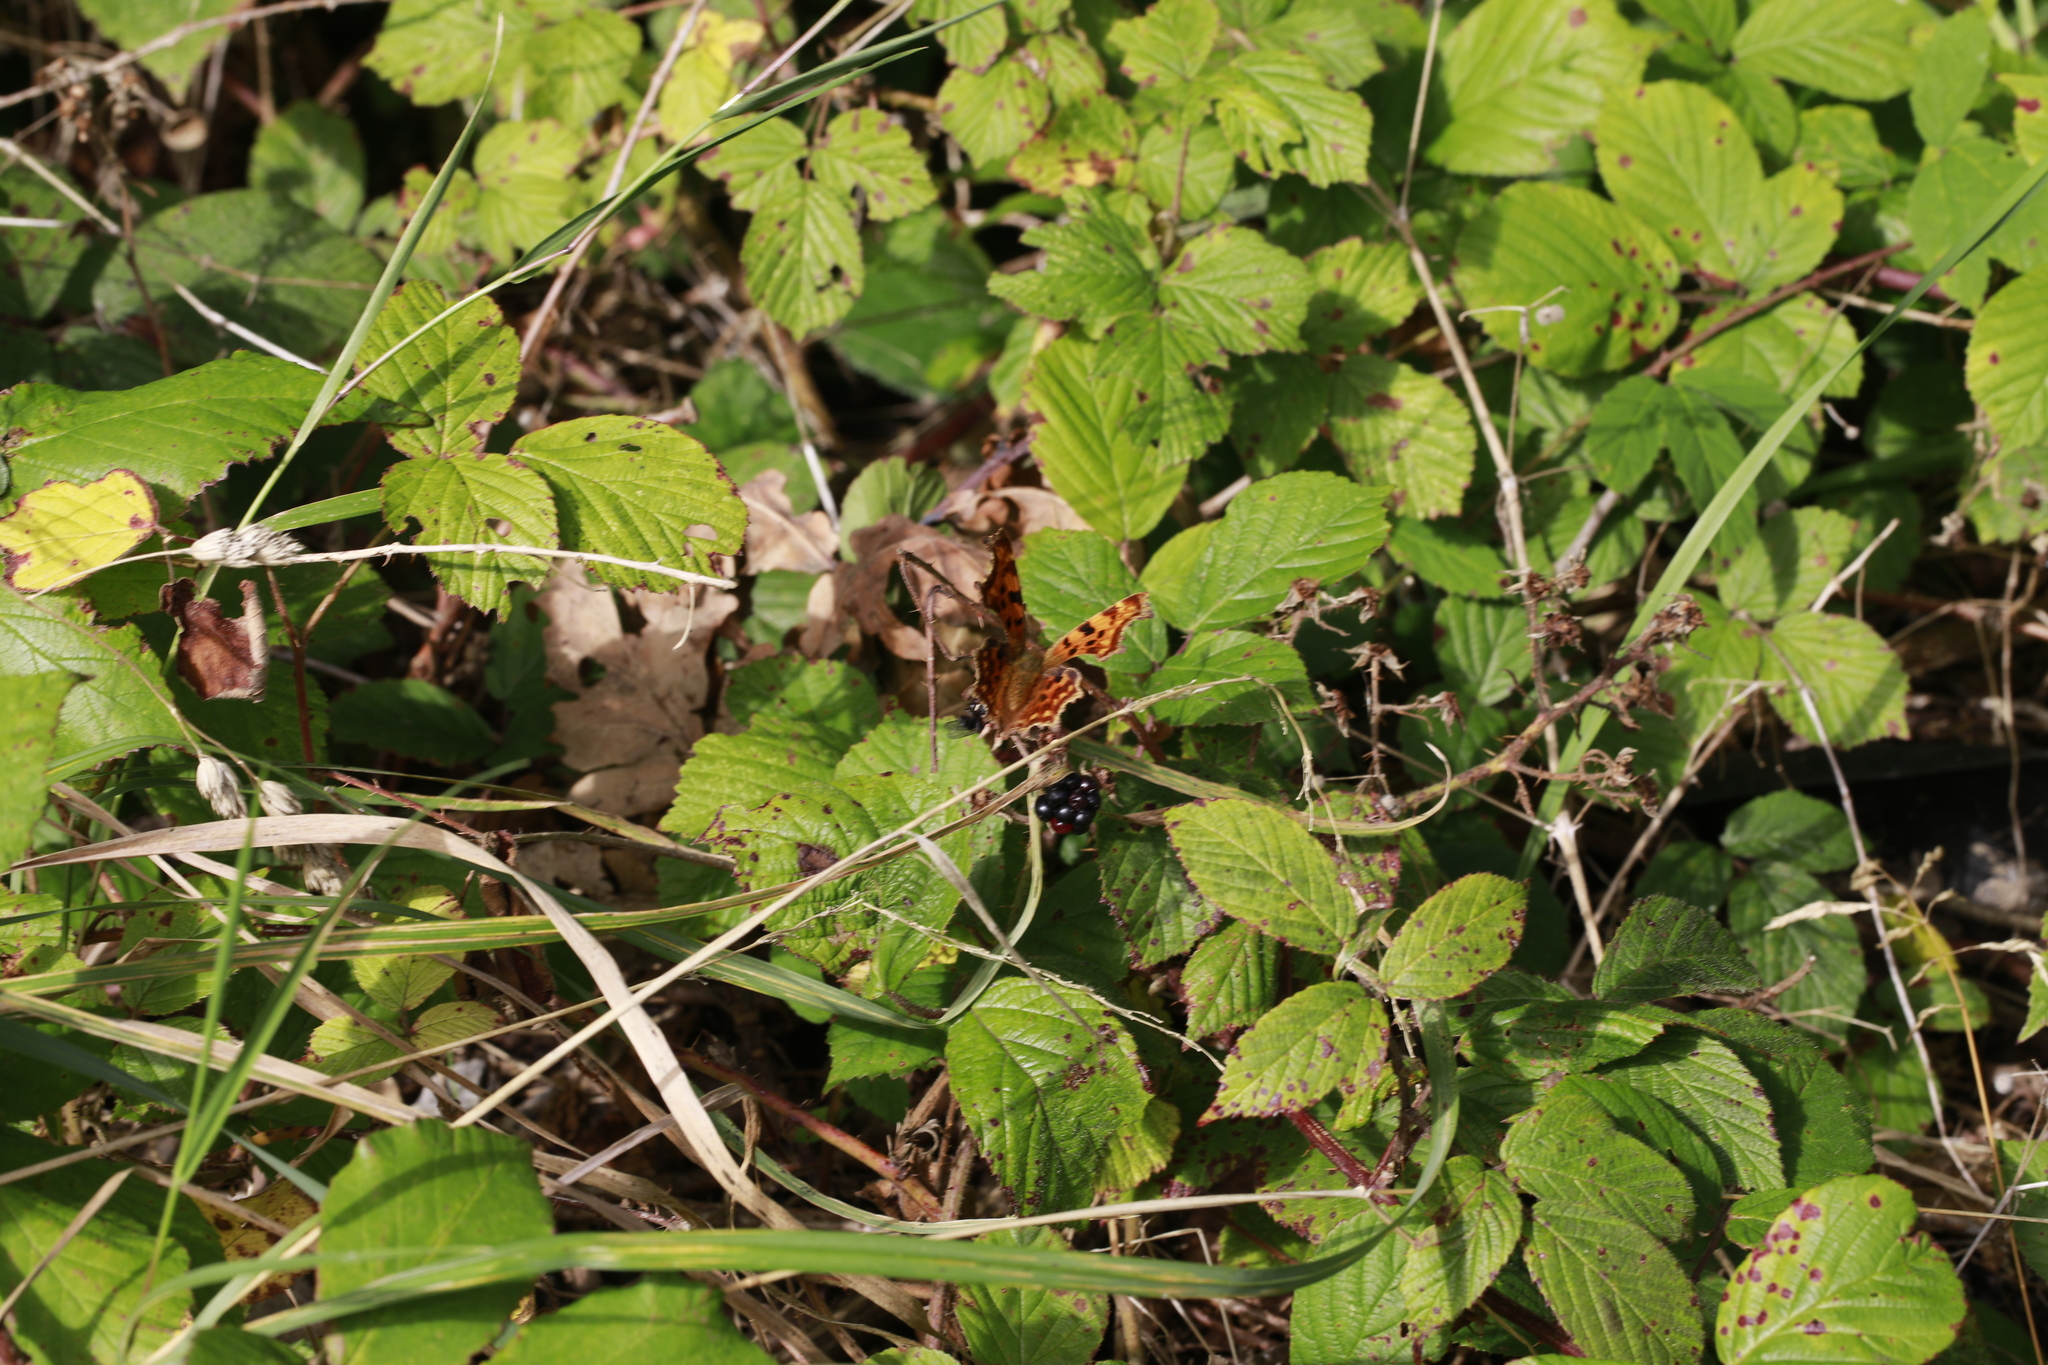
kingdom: Animalia
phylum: Arthropoda
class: Insecta
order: Lepidoptera
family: Nymphalidae
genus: Polygonia
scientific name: Polygonia c-album
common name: Comma
